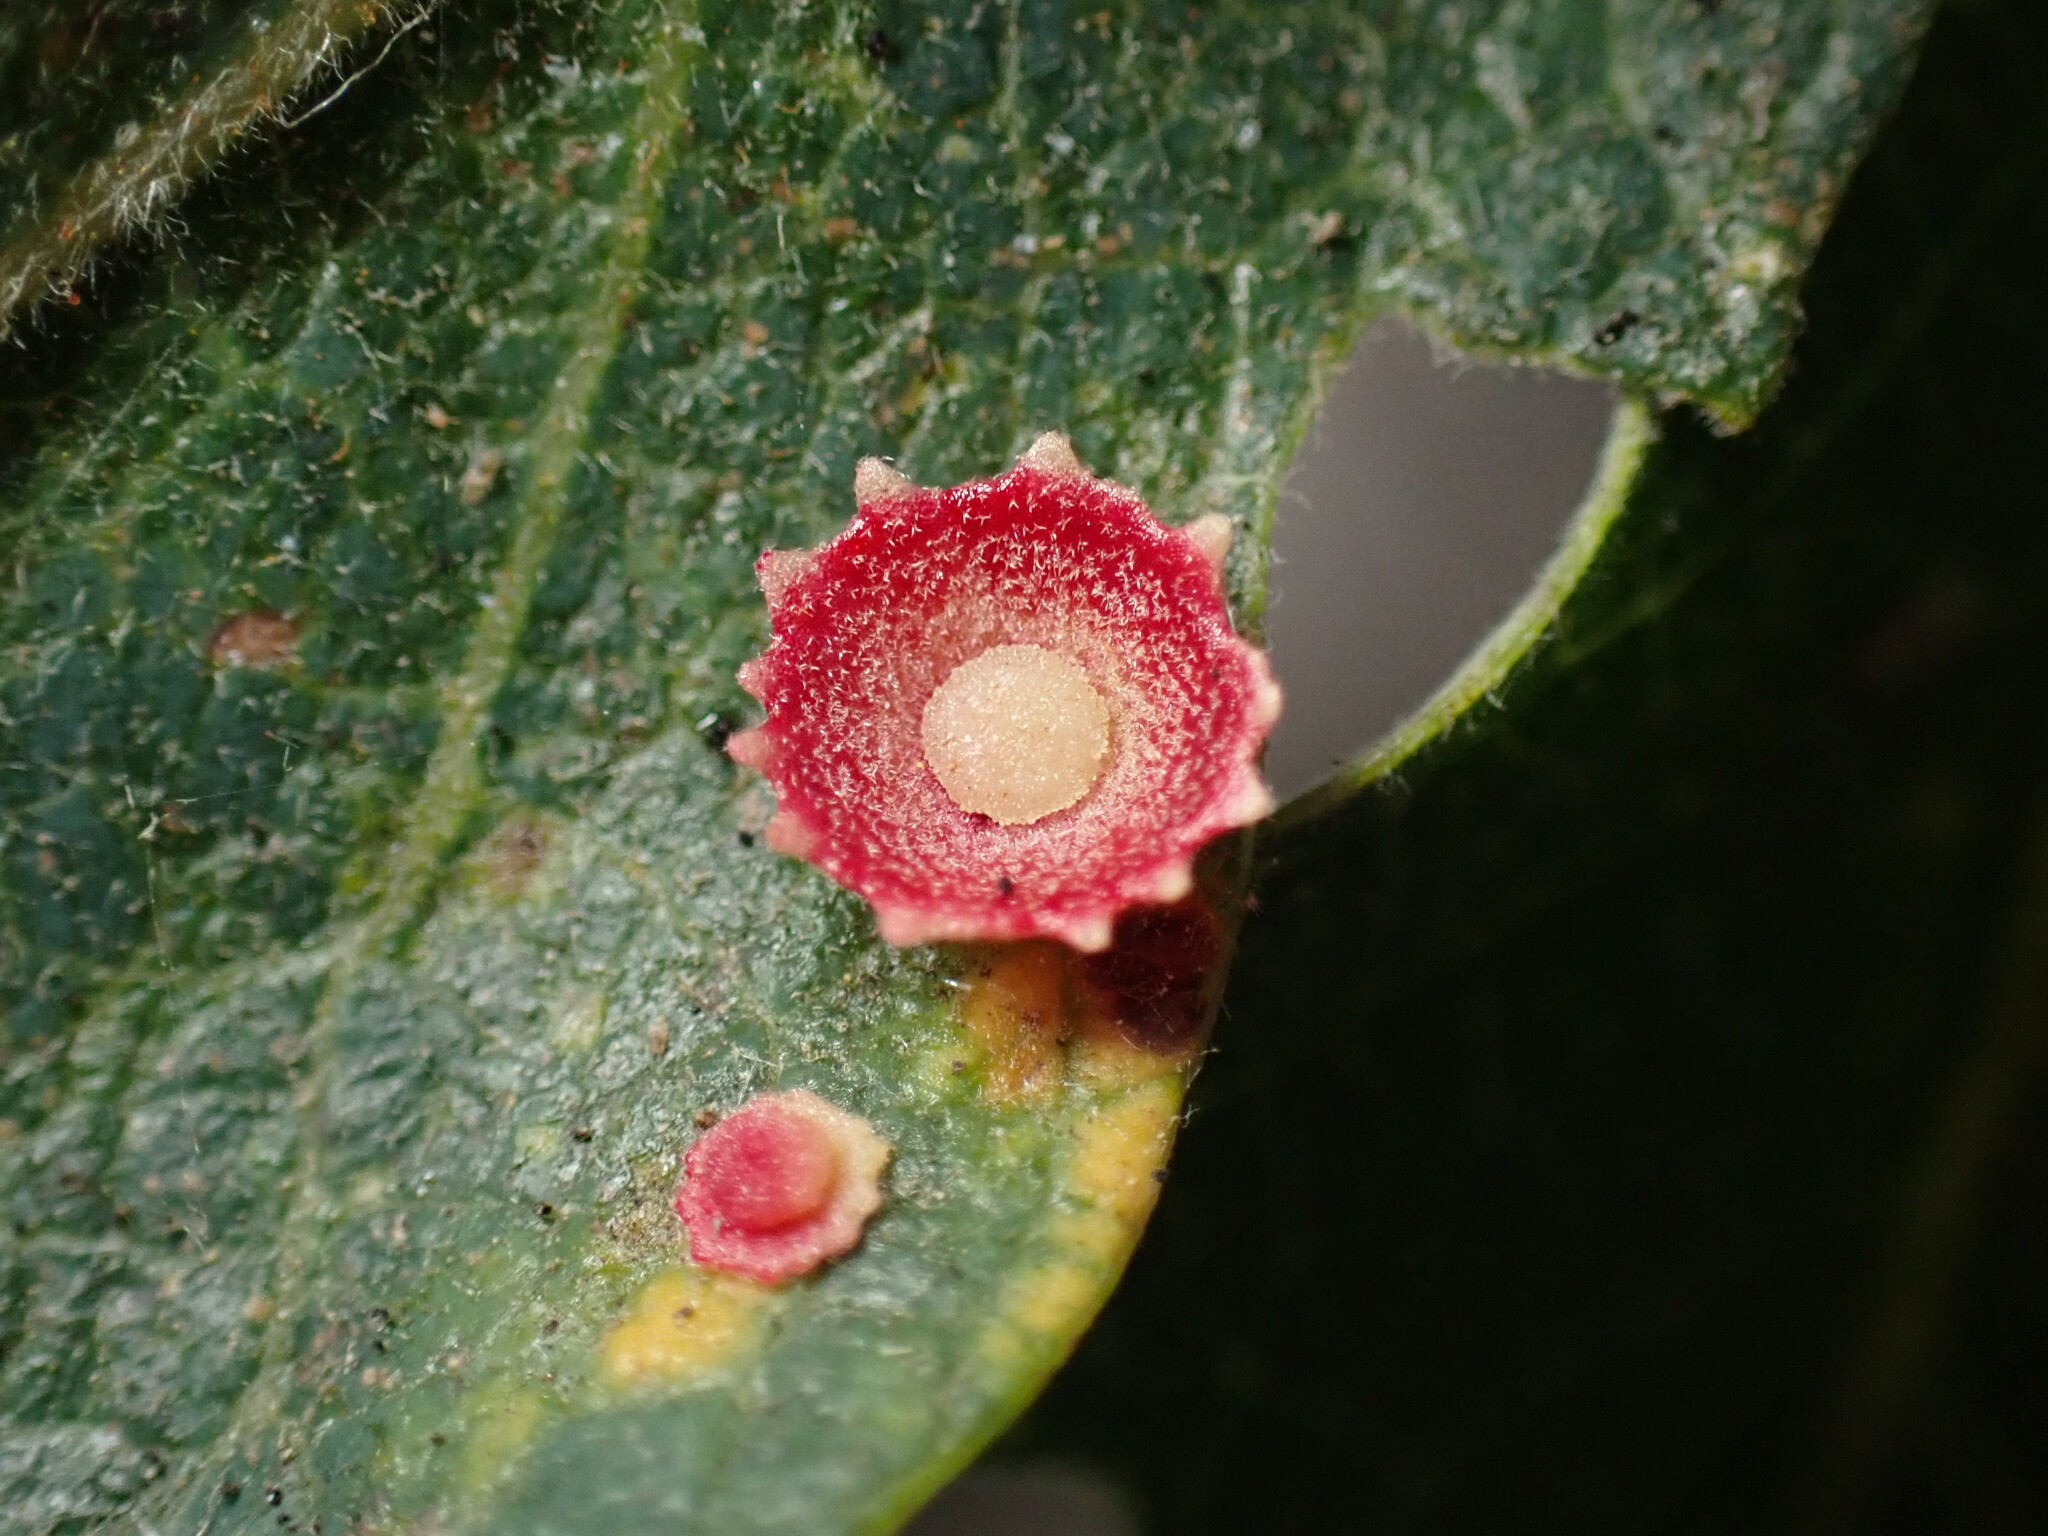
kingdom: Animalia
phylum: Arthropoda
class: Insecta
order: Hymenoptera
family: Cynipidae
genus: Andricus
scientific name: Andricus
